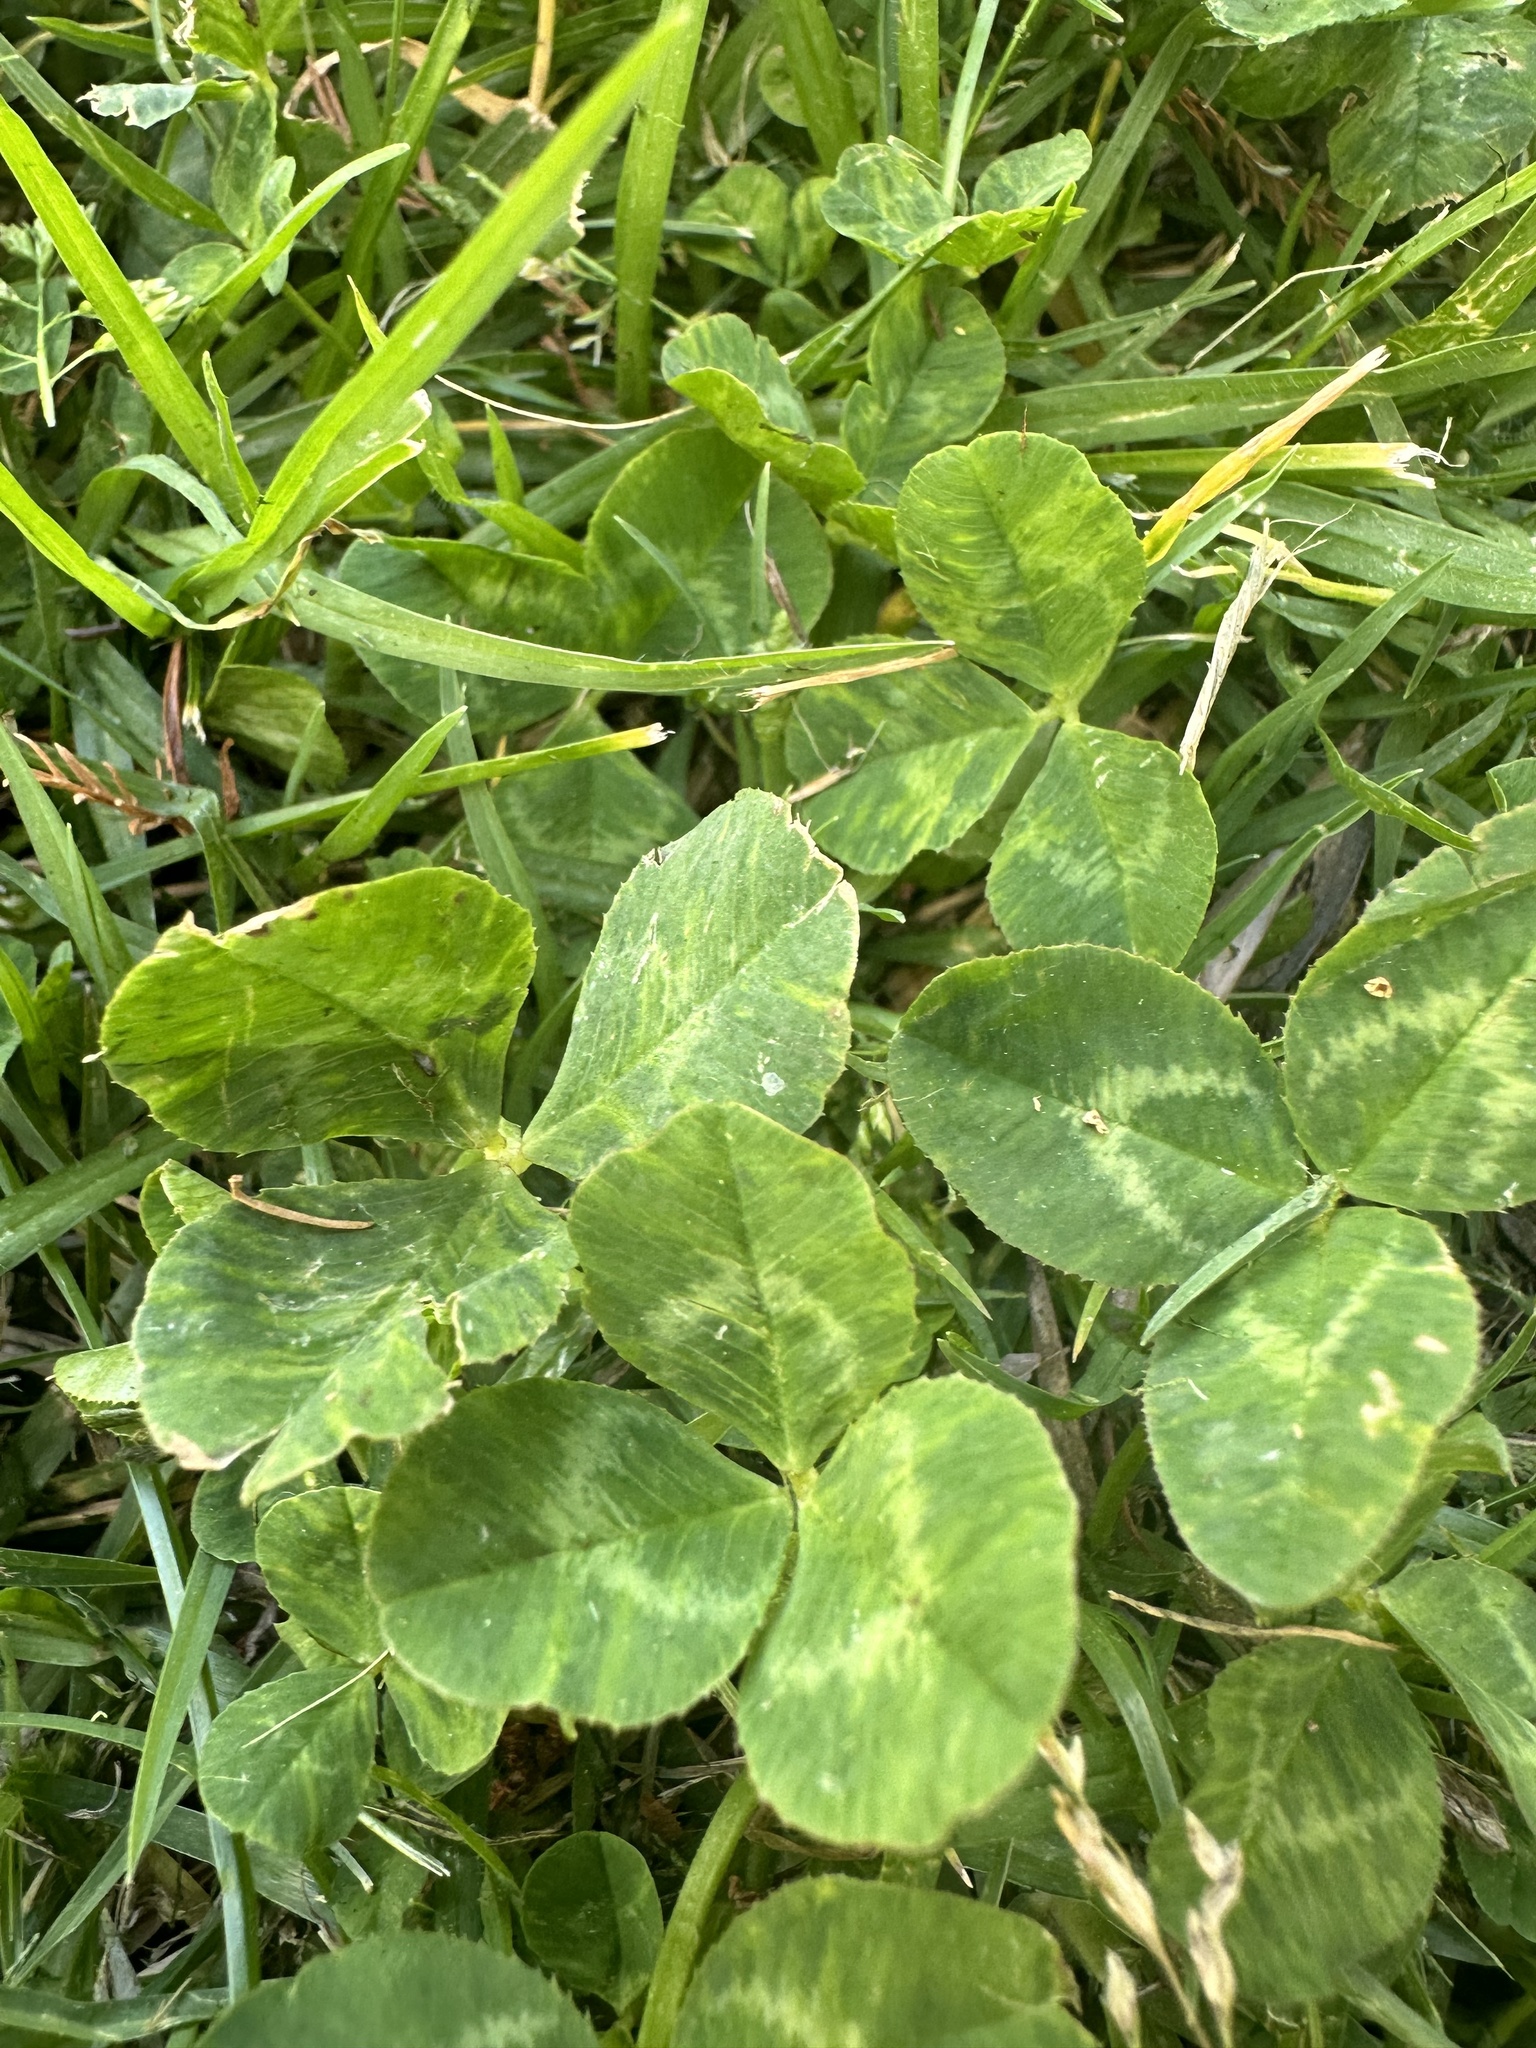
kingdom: Plantae
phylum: Tracheophyta
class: Magnoliopsida
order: Fabales
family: Fabaceae
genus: Trifolium
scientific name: Trifolium repens
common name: White clover
